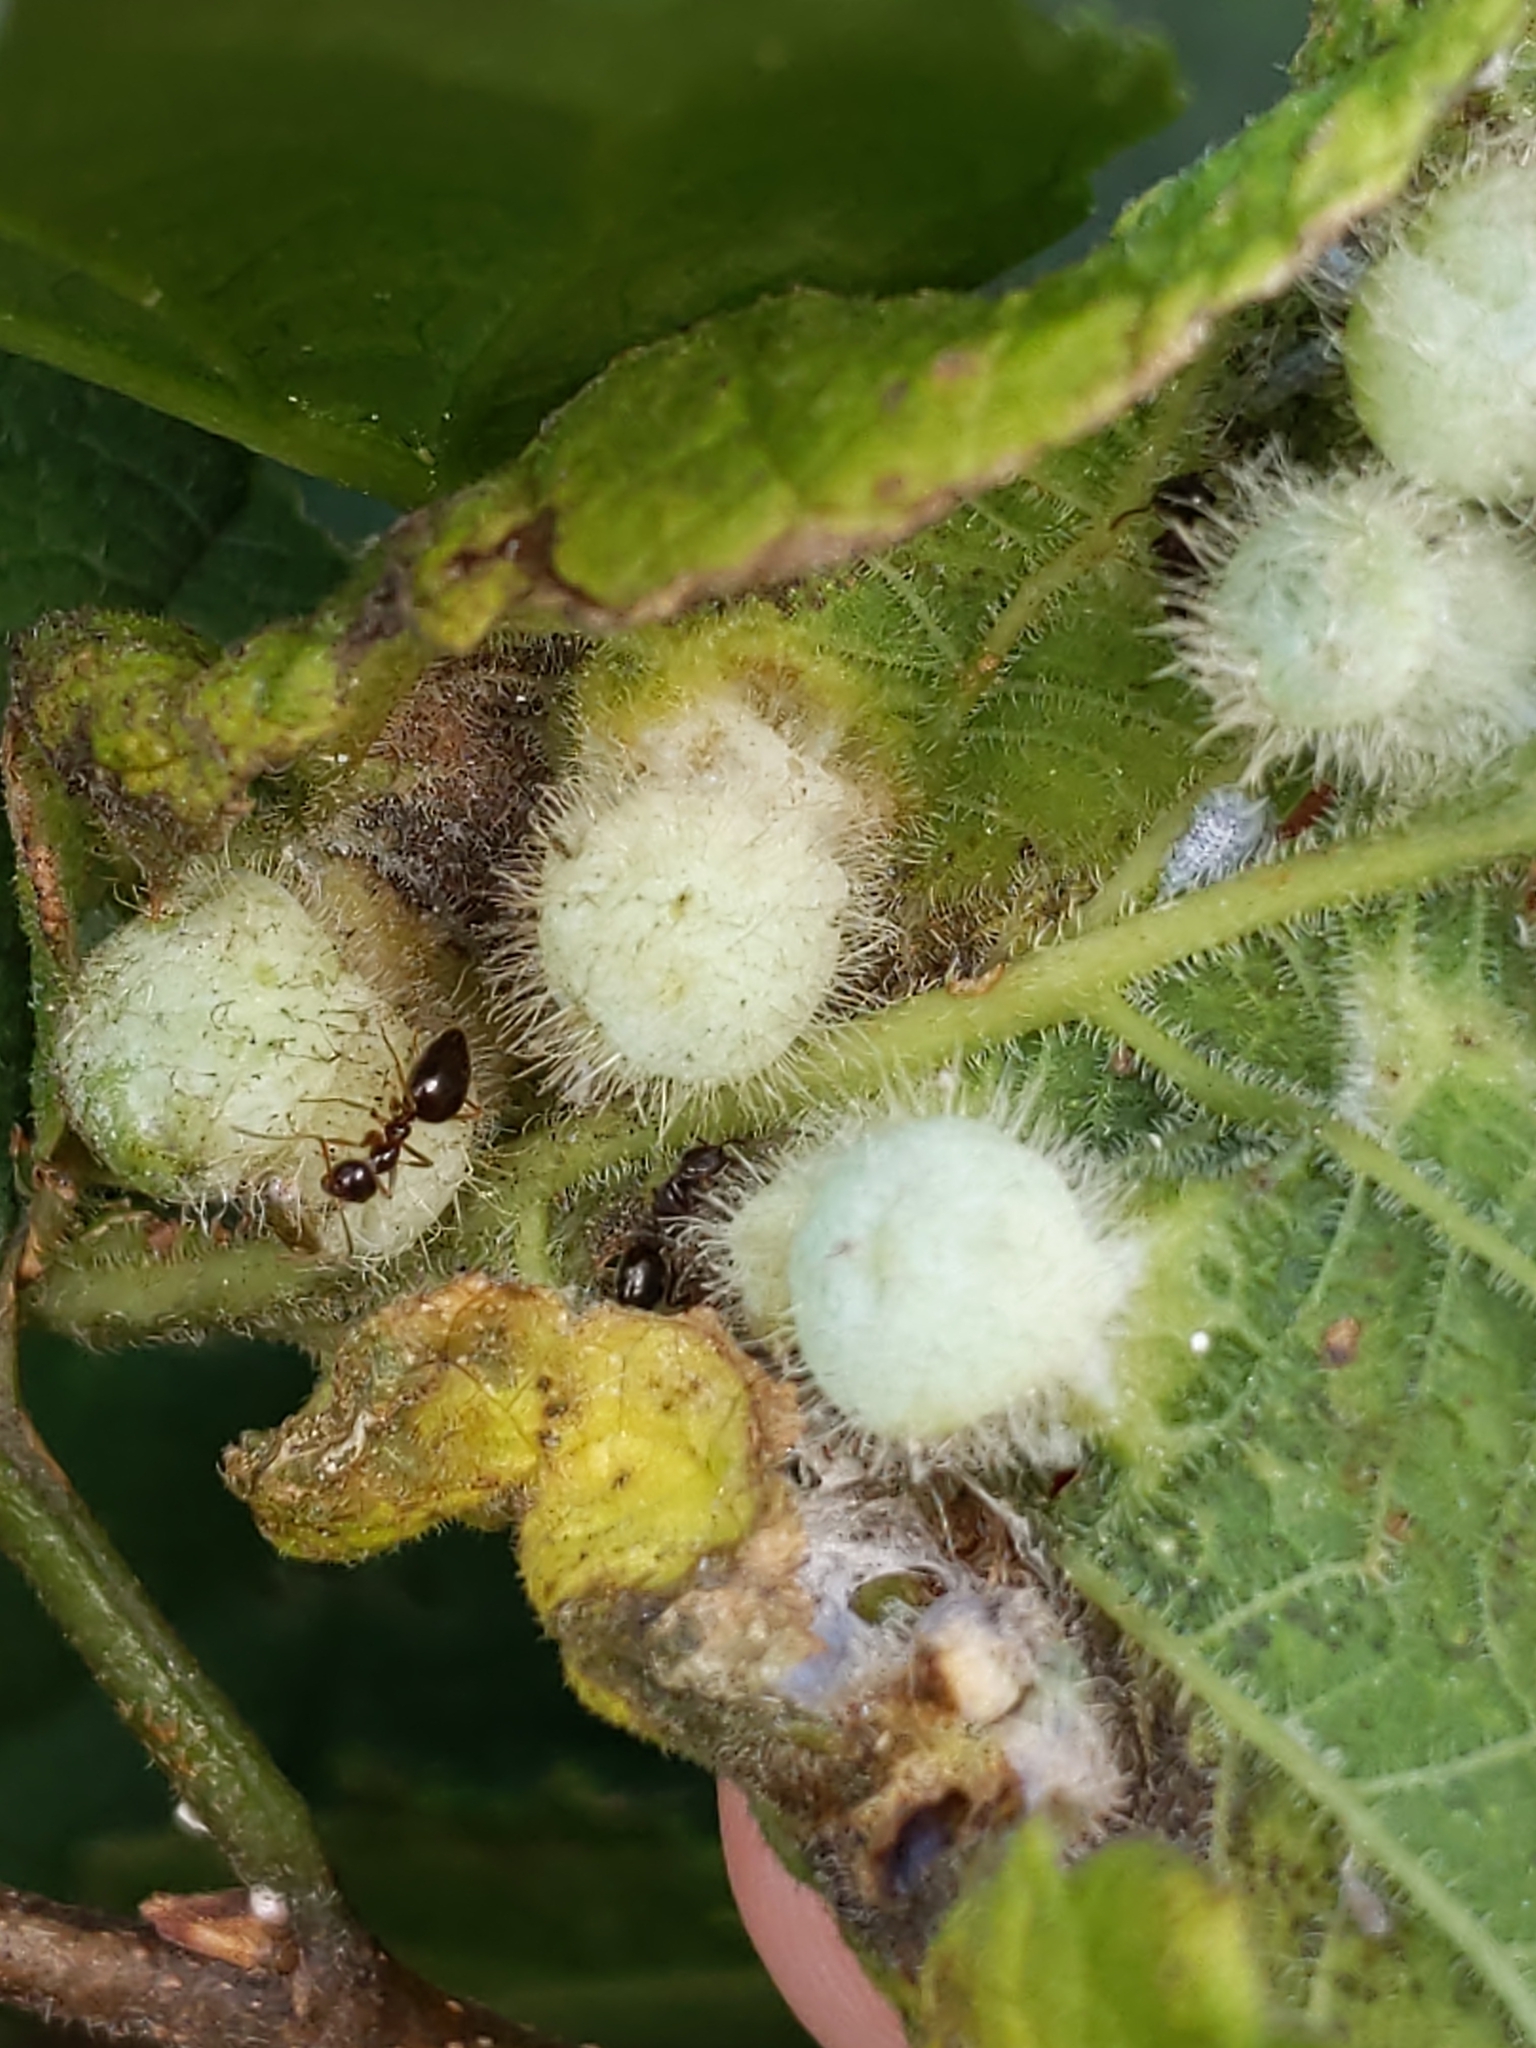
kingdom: Animalia
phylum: Arthropoda
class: Insecta
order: Hemiptera
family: Aphalaridae
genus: Pachypsylla
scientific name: Pachypsylla celtidismamma
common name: Hackberry nipplegall psyllid
